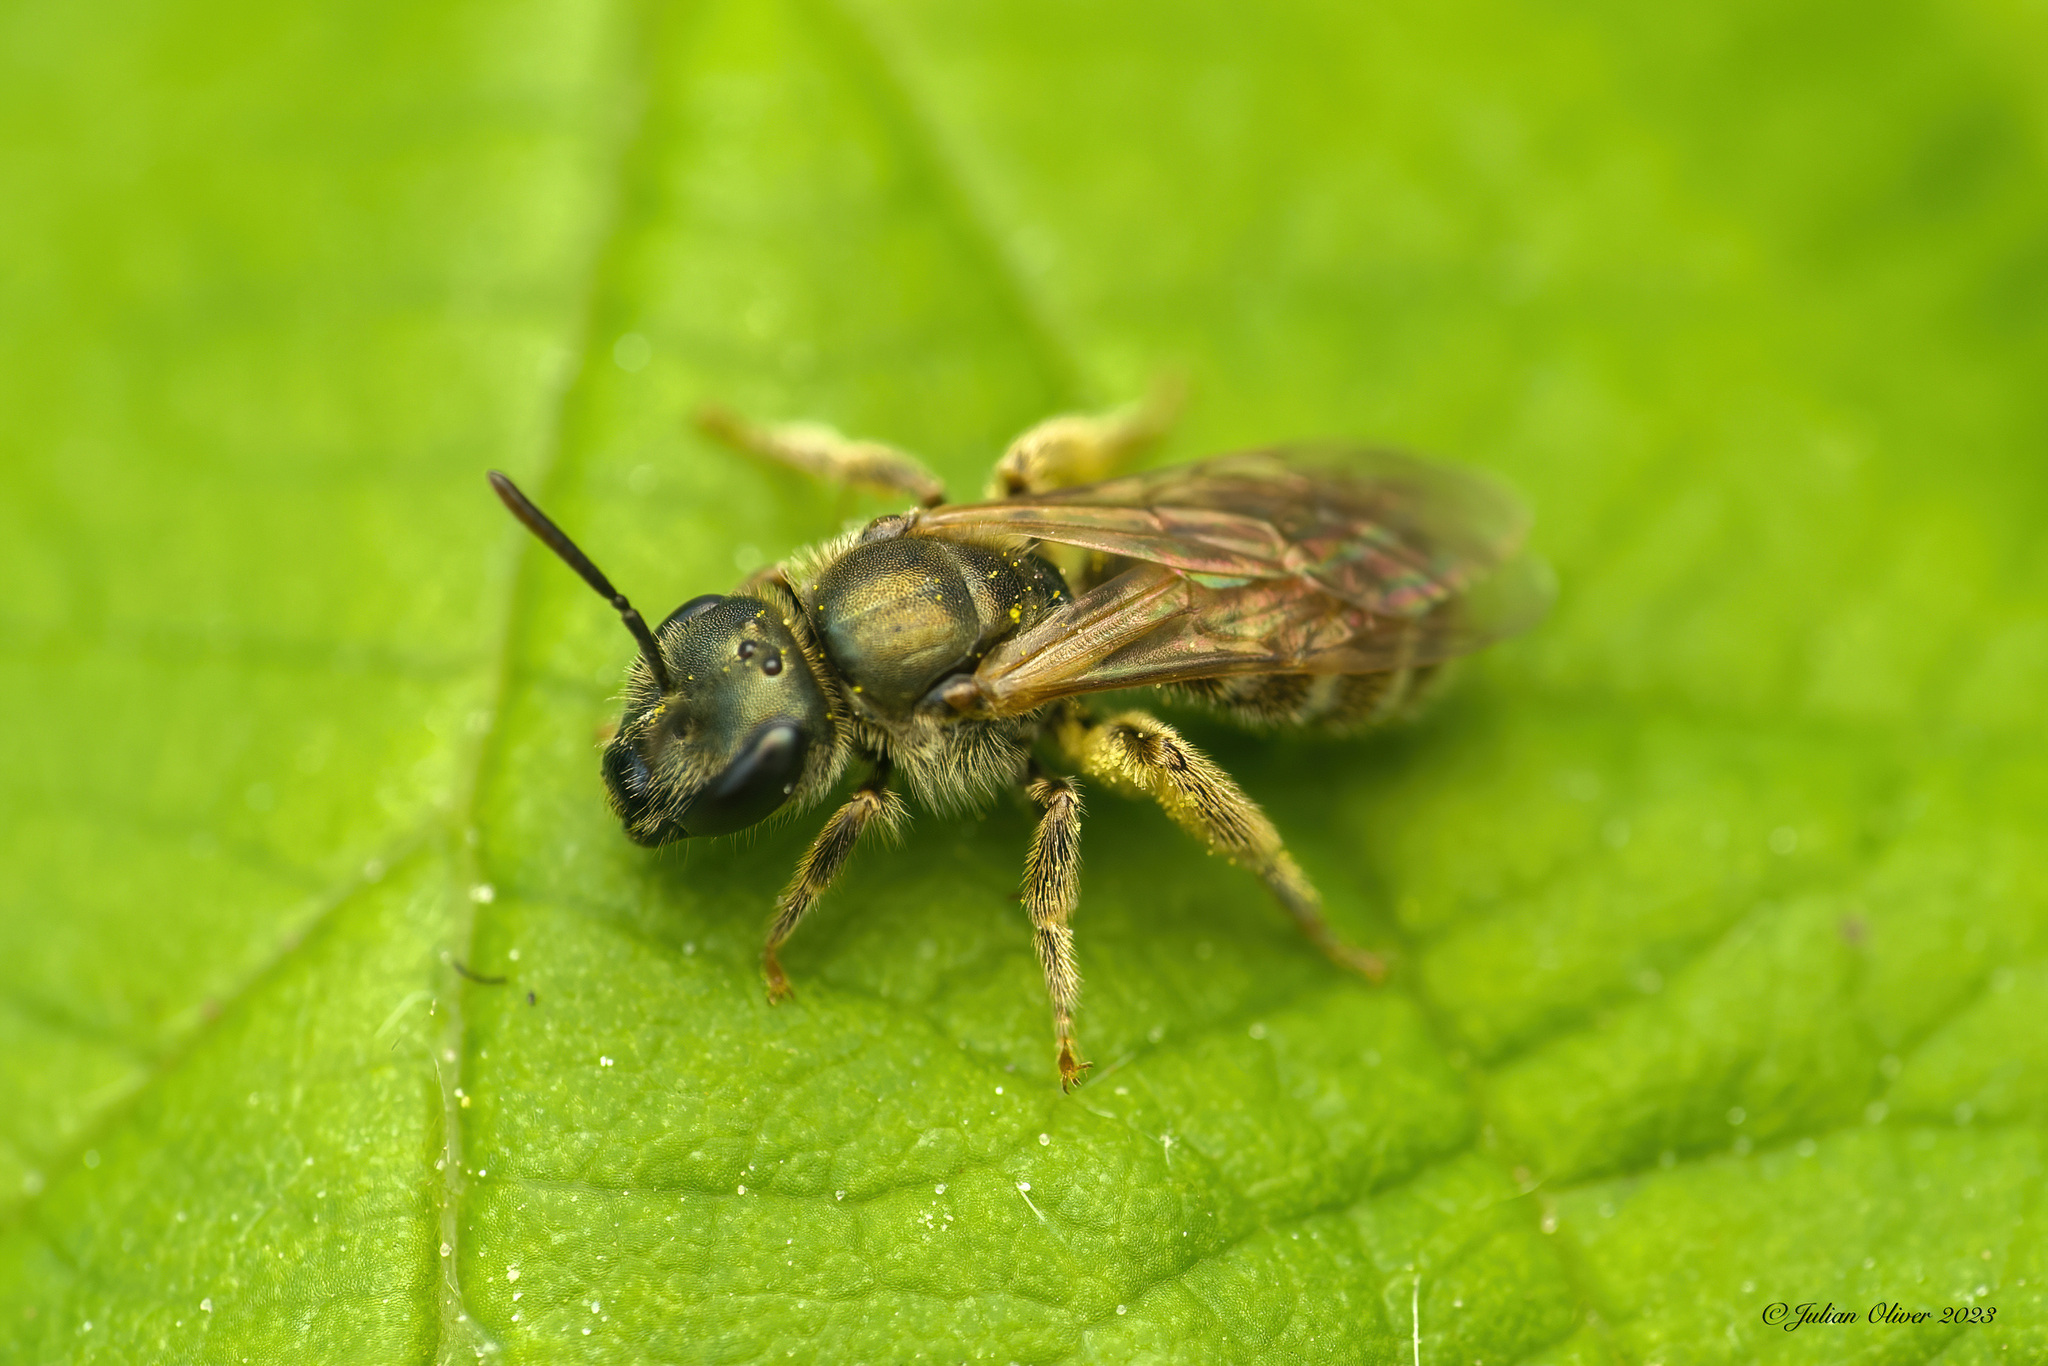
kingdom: Animalia
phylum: Arthropoda
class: Insecta
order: Hymenoptera
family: Halictidae
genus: Halictus
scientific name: Halictus tumulorum
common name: Bronze furrow bee
